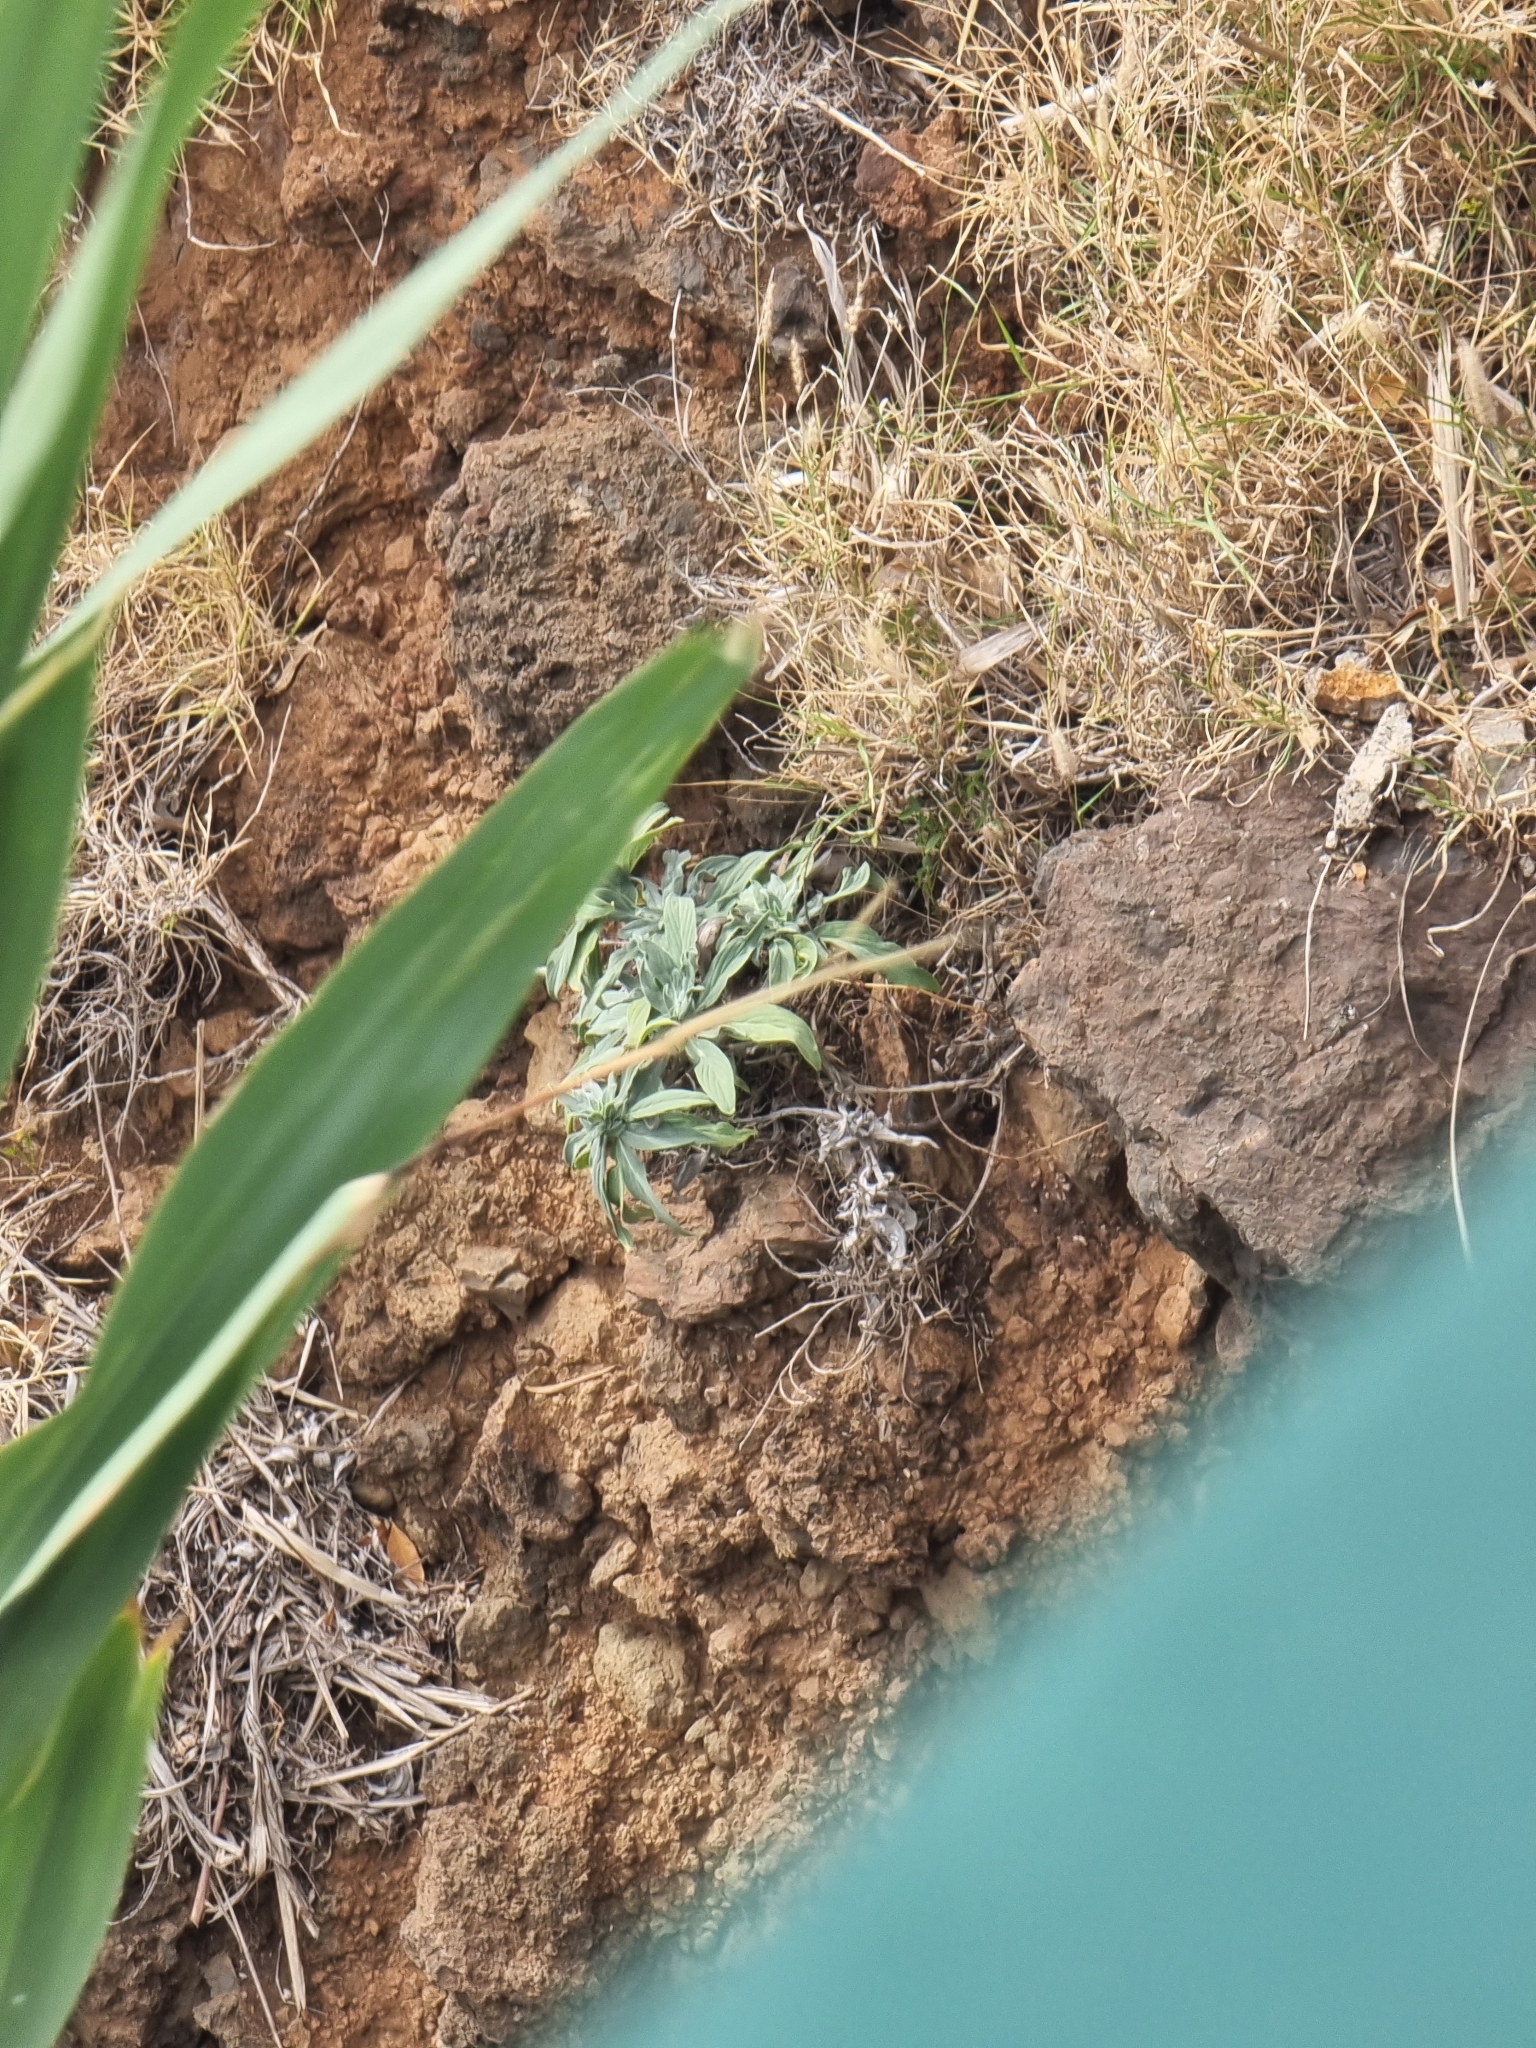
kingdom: Plantae
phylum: Tracheophyta
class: Magnoliopsida
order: Boraginales
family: Boraginaceae
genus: Echium
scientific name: Echium nervosum
